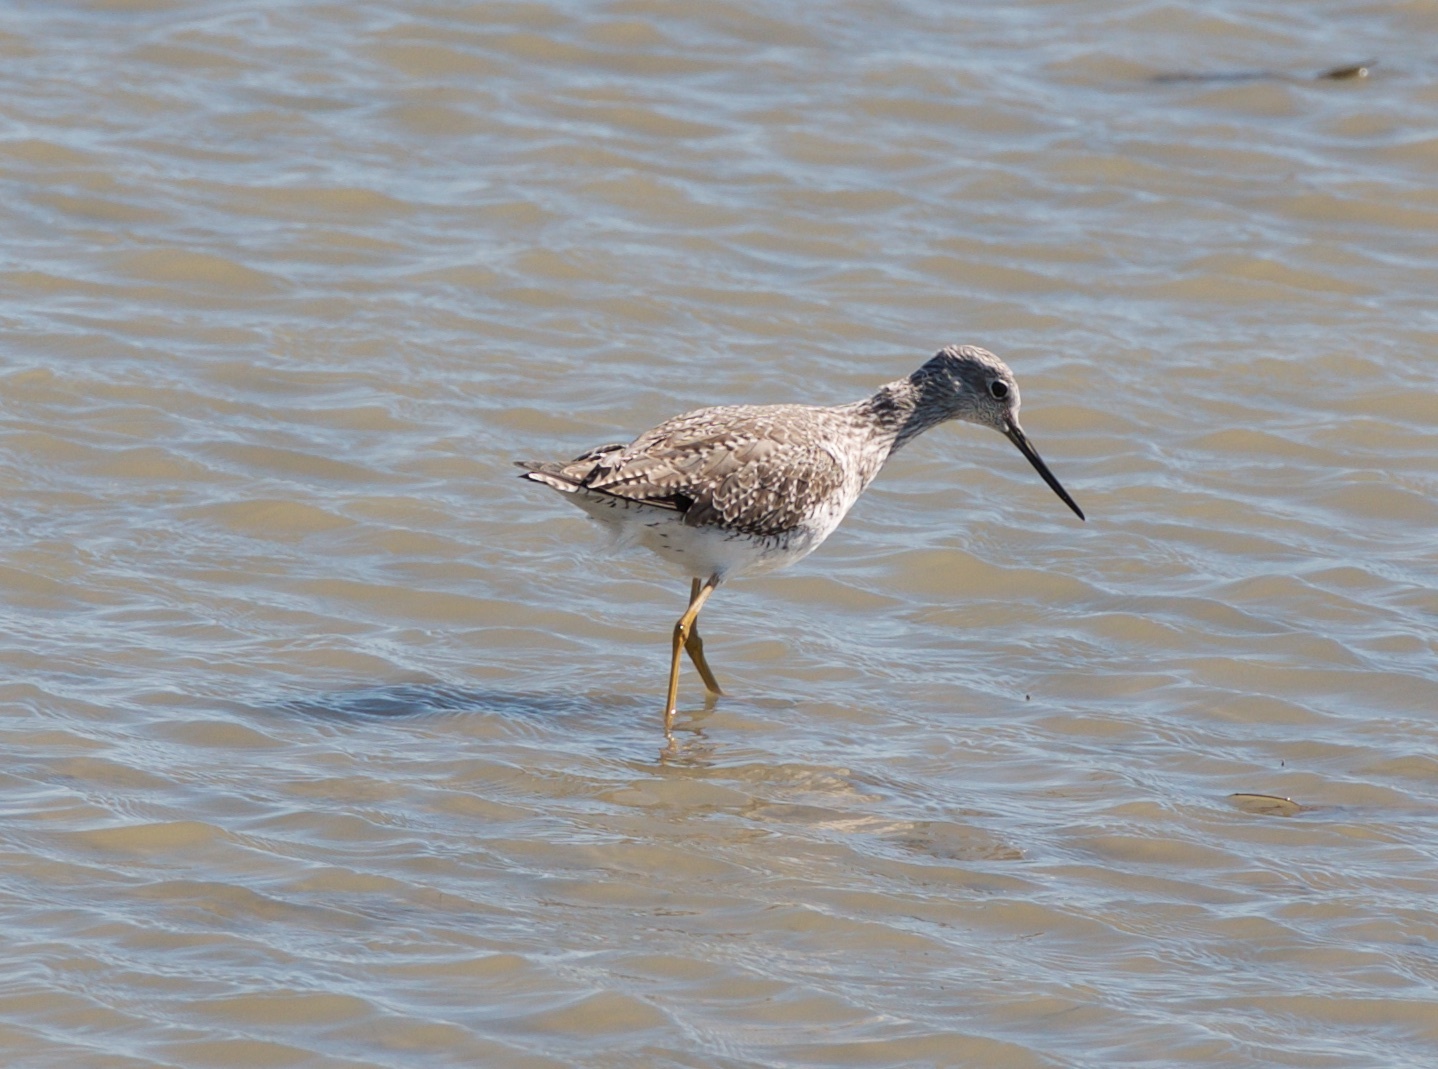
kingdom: Animalia
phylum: Chordata
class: Aves
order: Charadriiformes
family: Scolopacidae
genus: Tringa
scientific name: Tringa melanoleuca
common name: Greater yellowlegs
